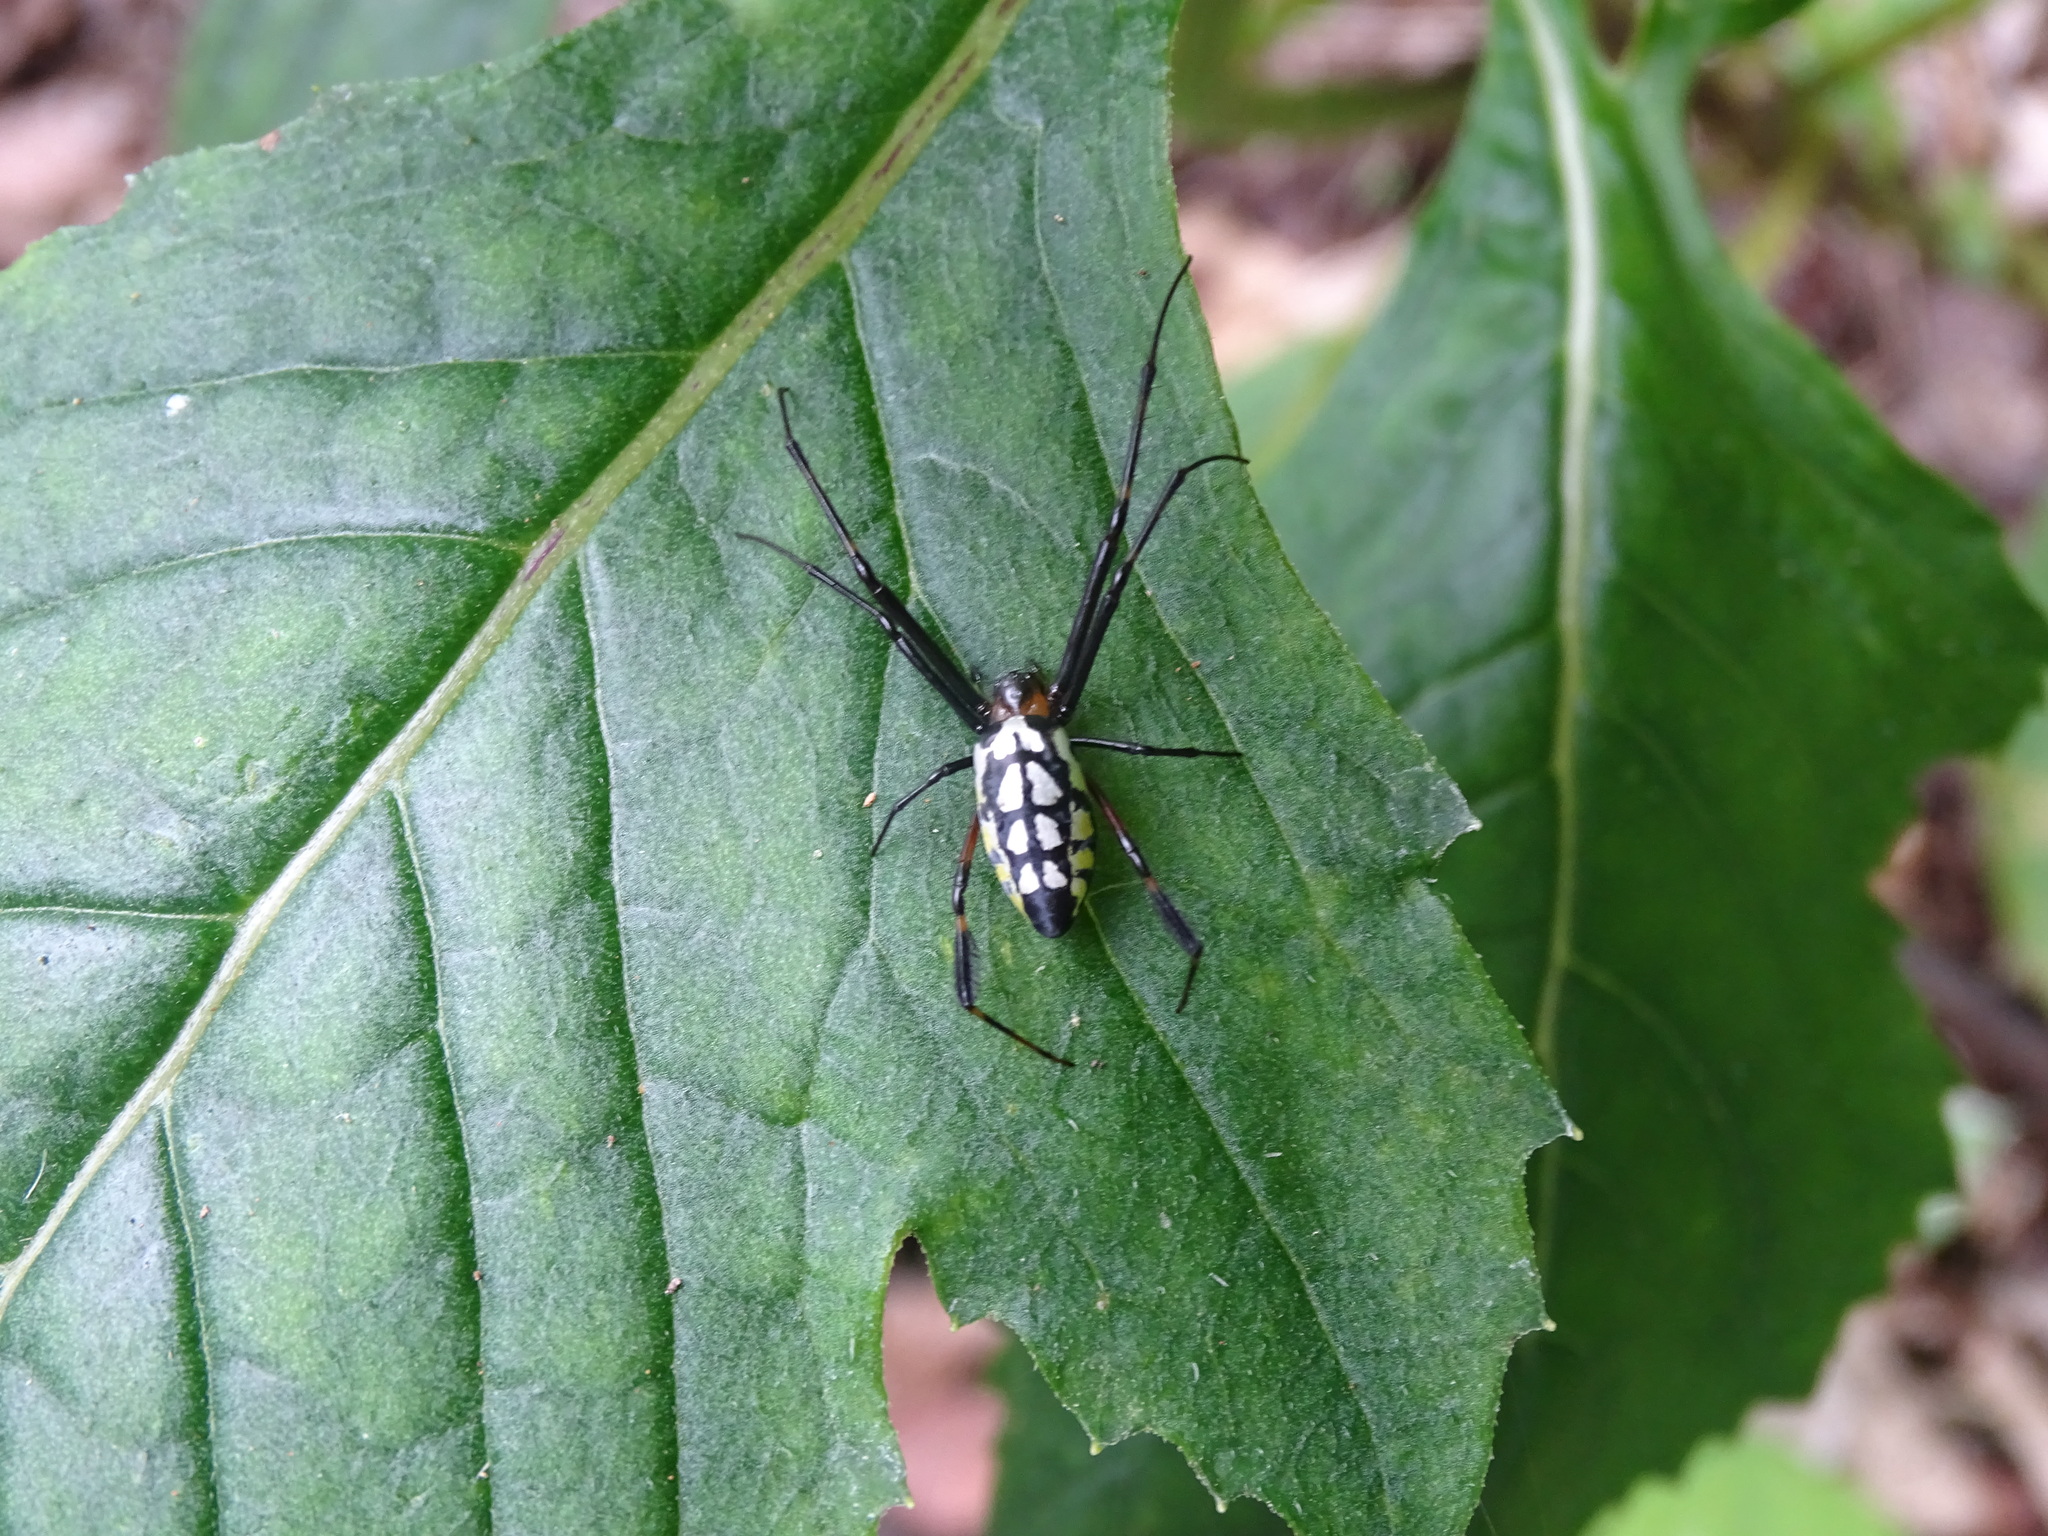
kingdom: Animalia
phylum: Arthropoda
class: Arachnida
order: Araneae
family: Tetragnathidae
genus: Leucauge
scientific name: Leucauge tessellata
